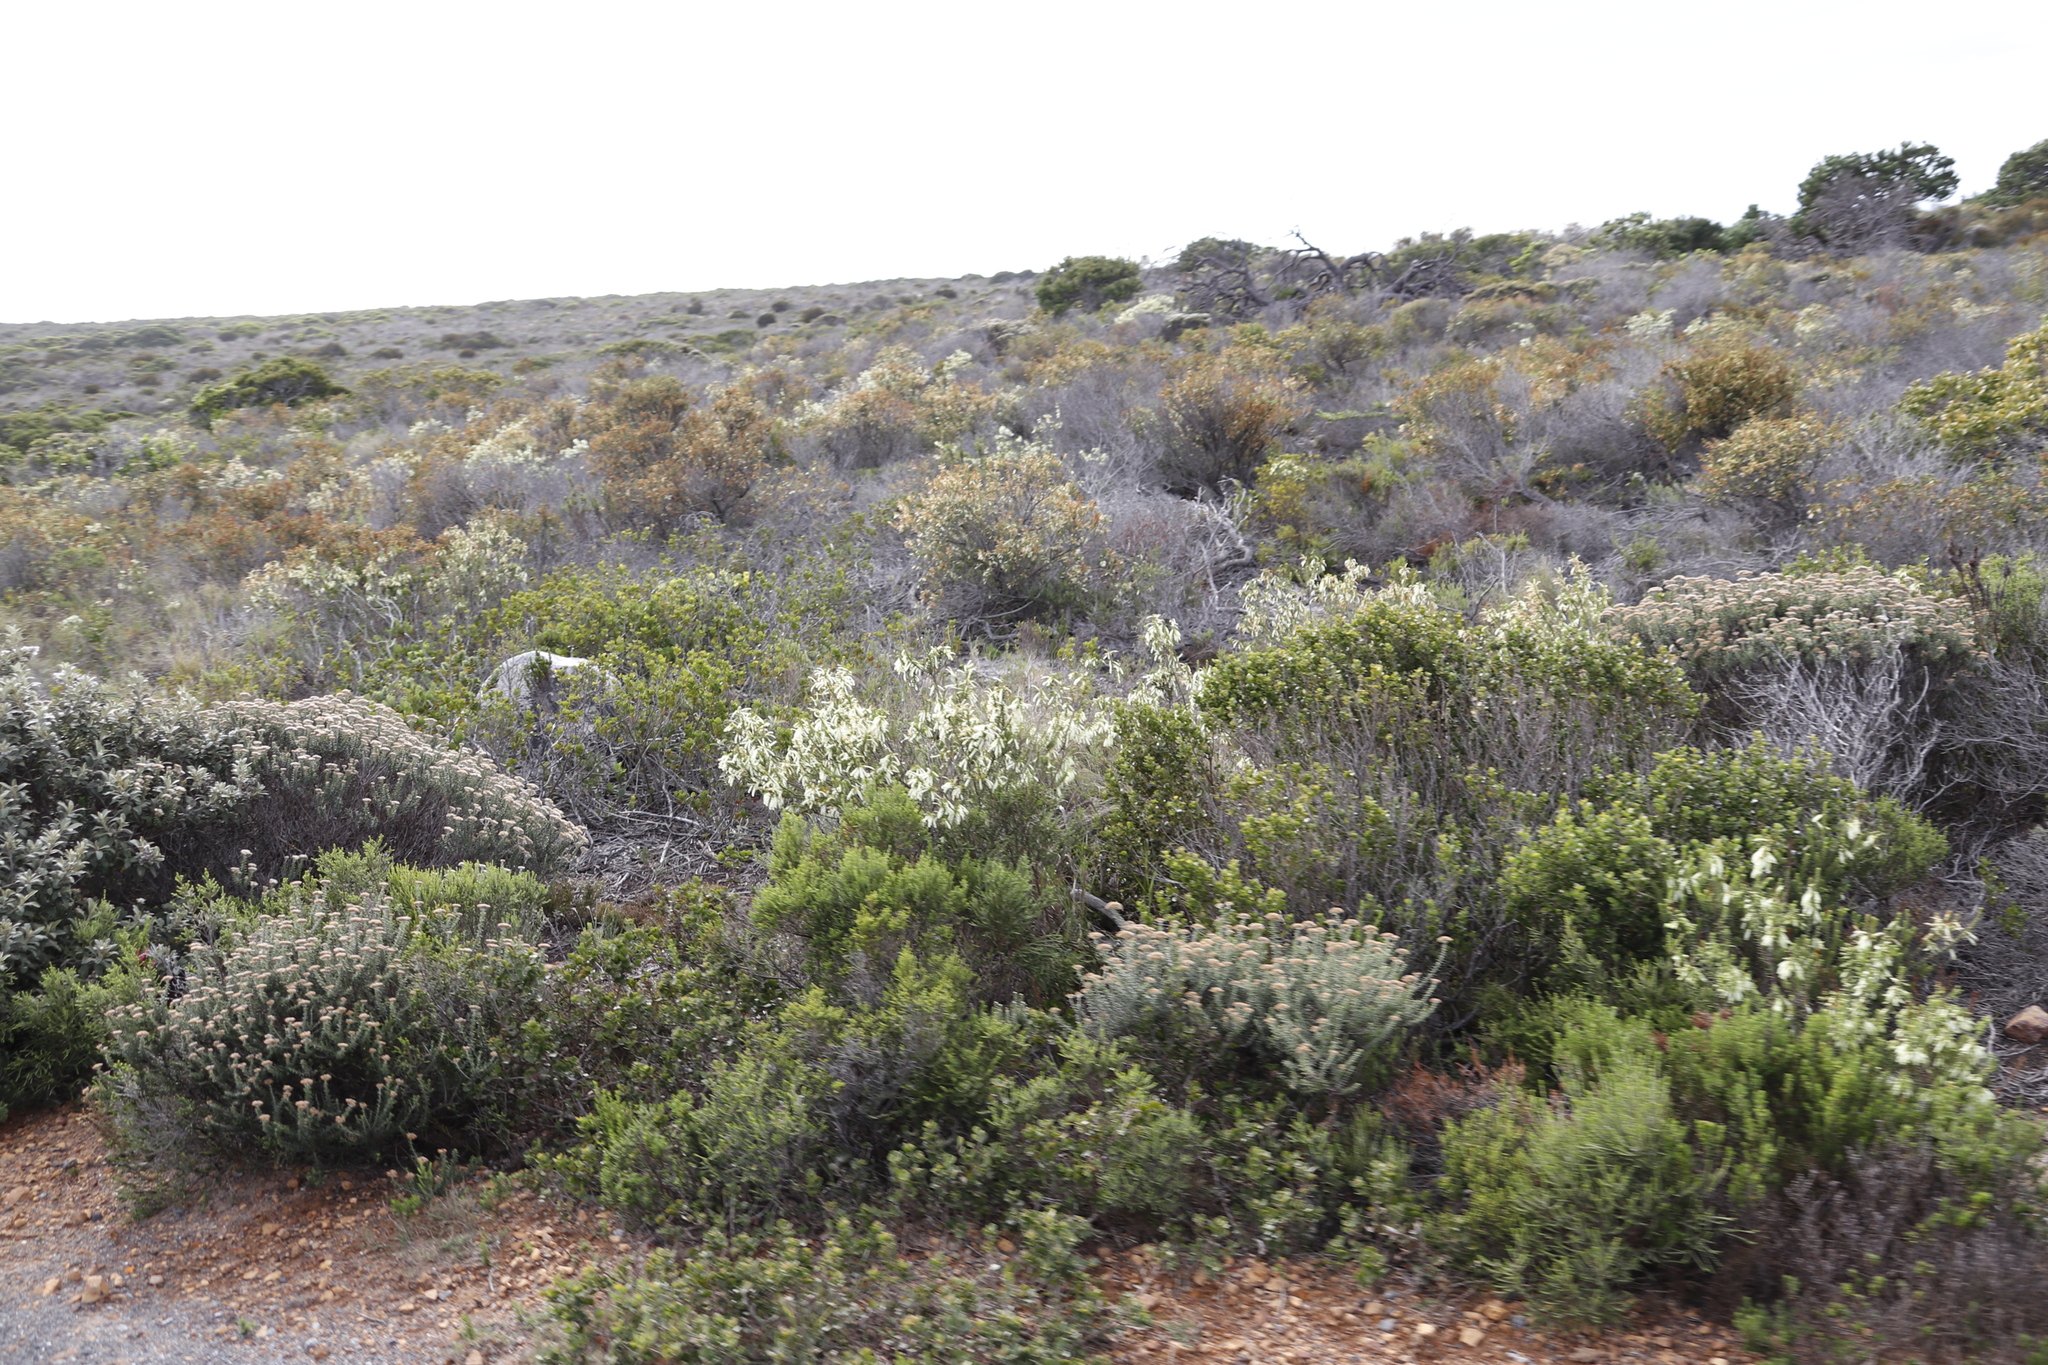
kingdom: Plantae
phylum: Tracheophyta
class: Magnoliopsida
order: Ericales
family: Ericaceae
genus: Erica
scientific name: Erica mammosa
